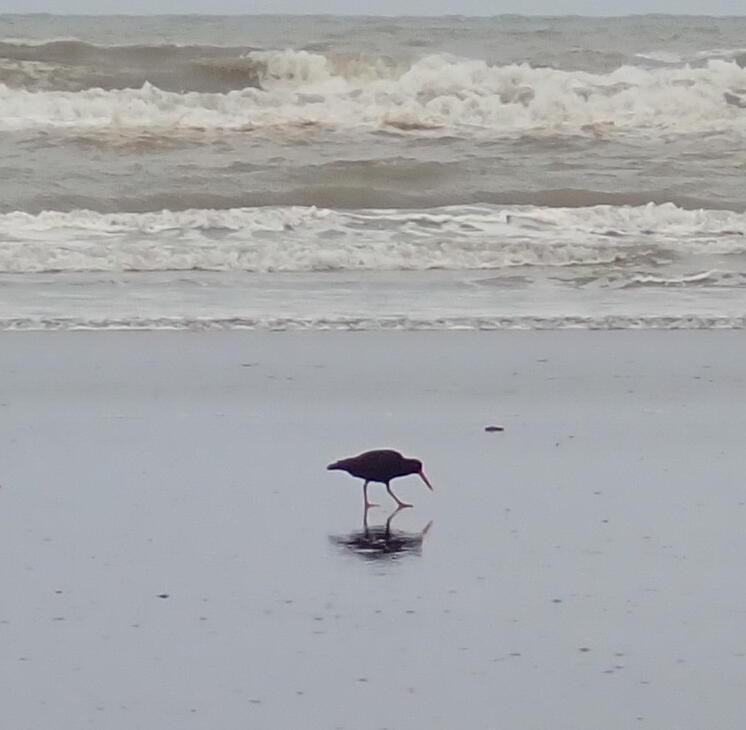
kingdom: Animalia
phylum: Chordata
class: Aves
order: Charadriiformes
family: Haematopodidae
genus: Haematopus
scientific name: Haematopus unicolor
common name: Variable oystercatcher
